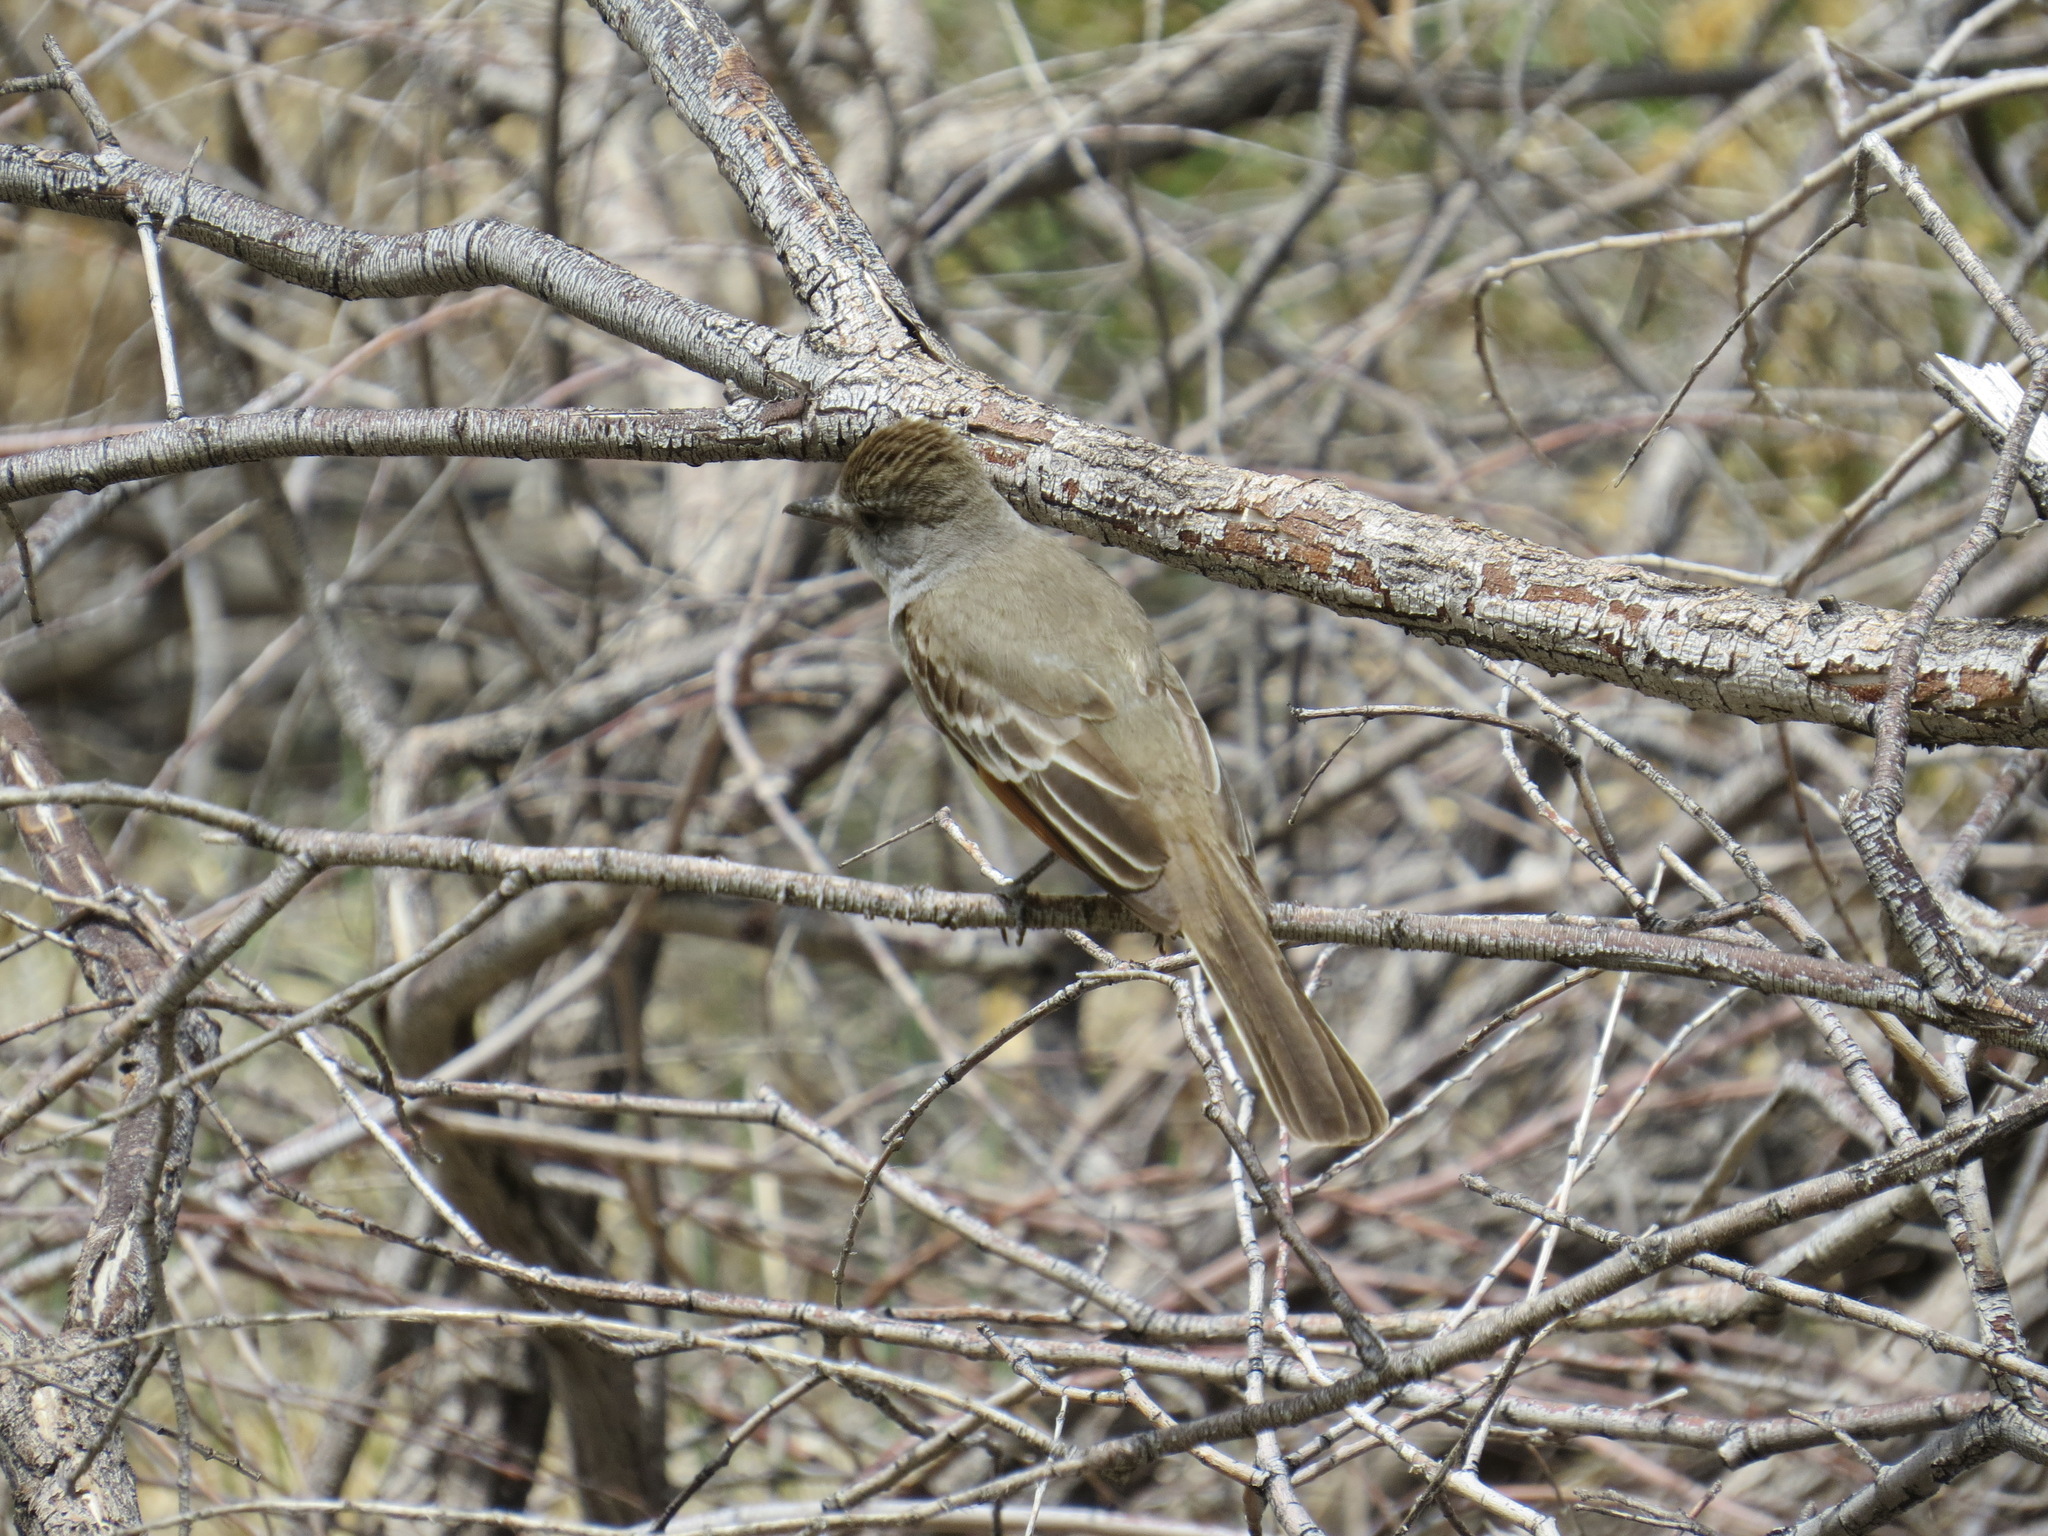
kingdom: Animalia
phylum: Chordata
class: Aves
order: Passeriformes
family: Tyrannidae
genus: Myiarchus
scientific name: Myiarchus cinerascens
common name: Ash-throated flycatcher
